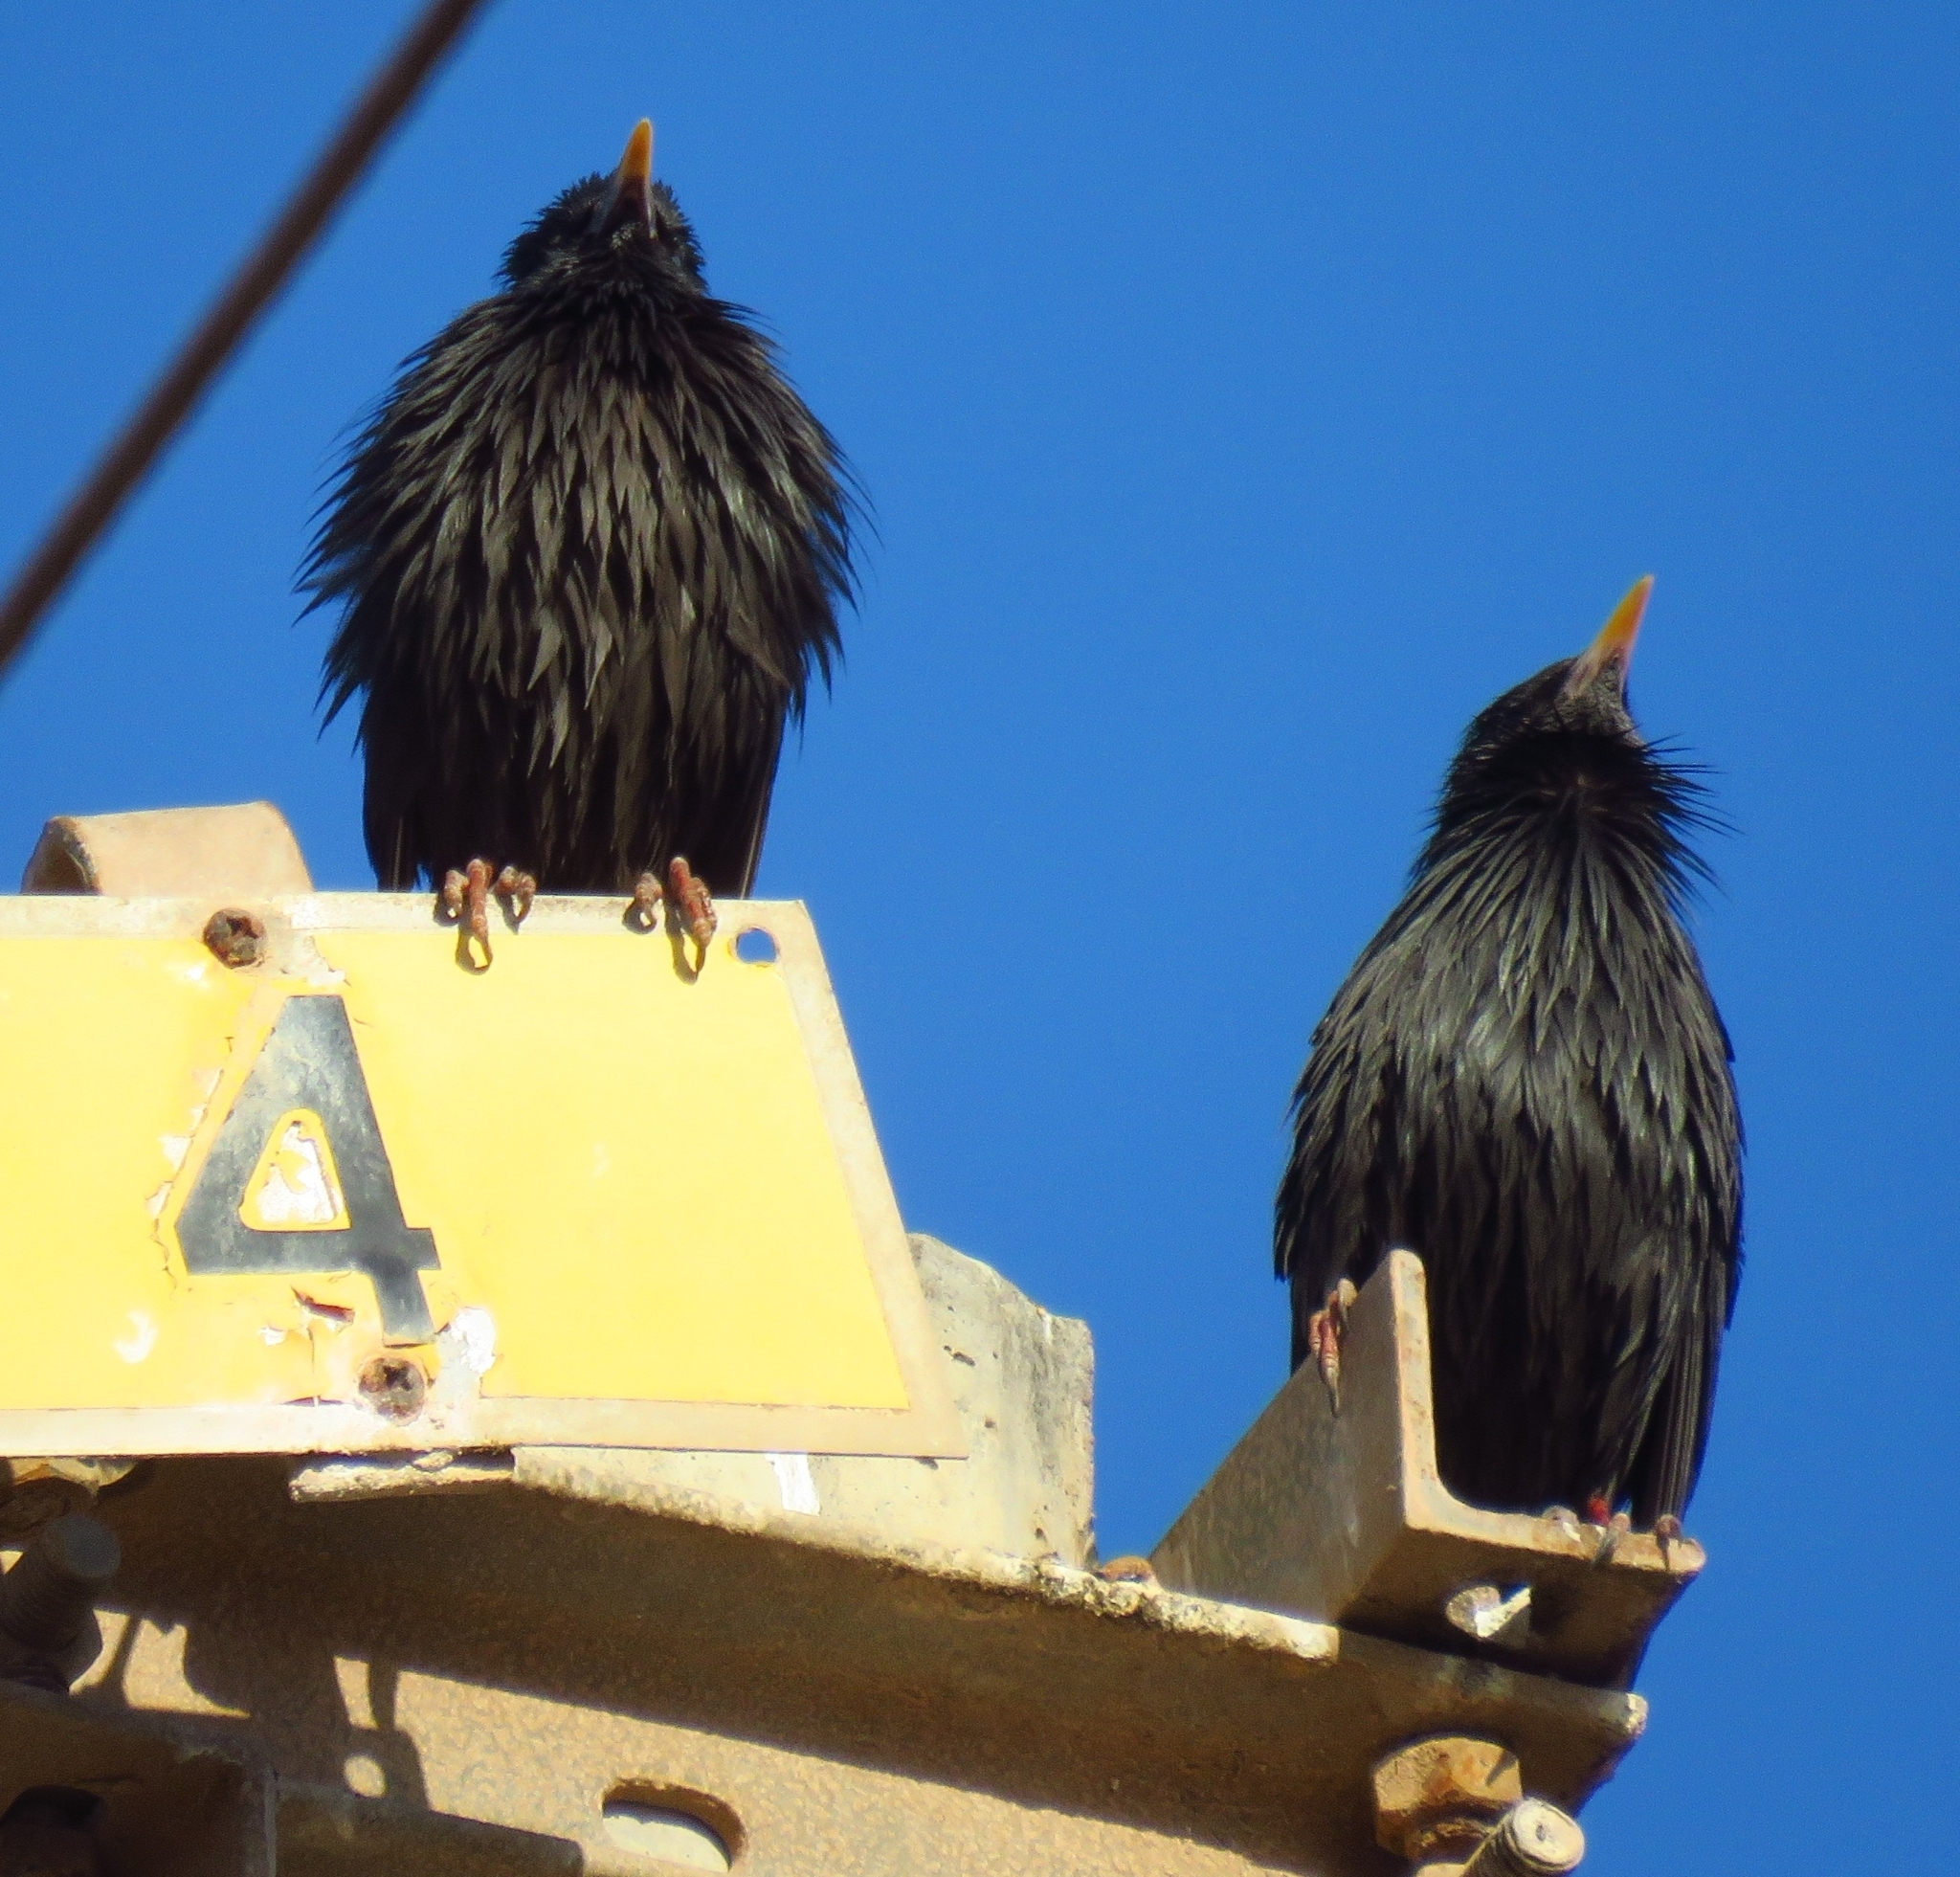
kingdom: Animalia
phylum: Chordata
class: Aves
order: Passeriformes
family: Sturnidae
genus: Sturnus
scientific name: Sturnus unicolor
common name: Spotless starling
